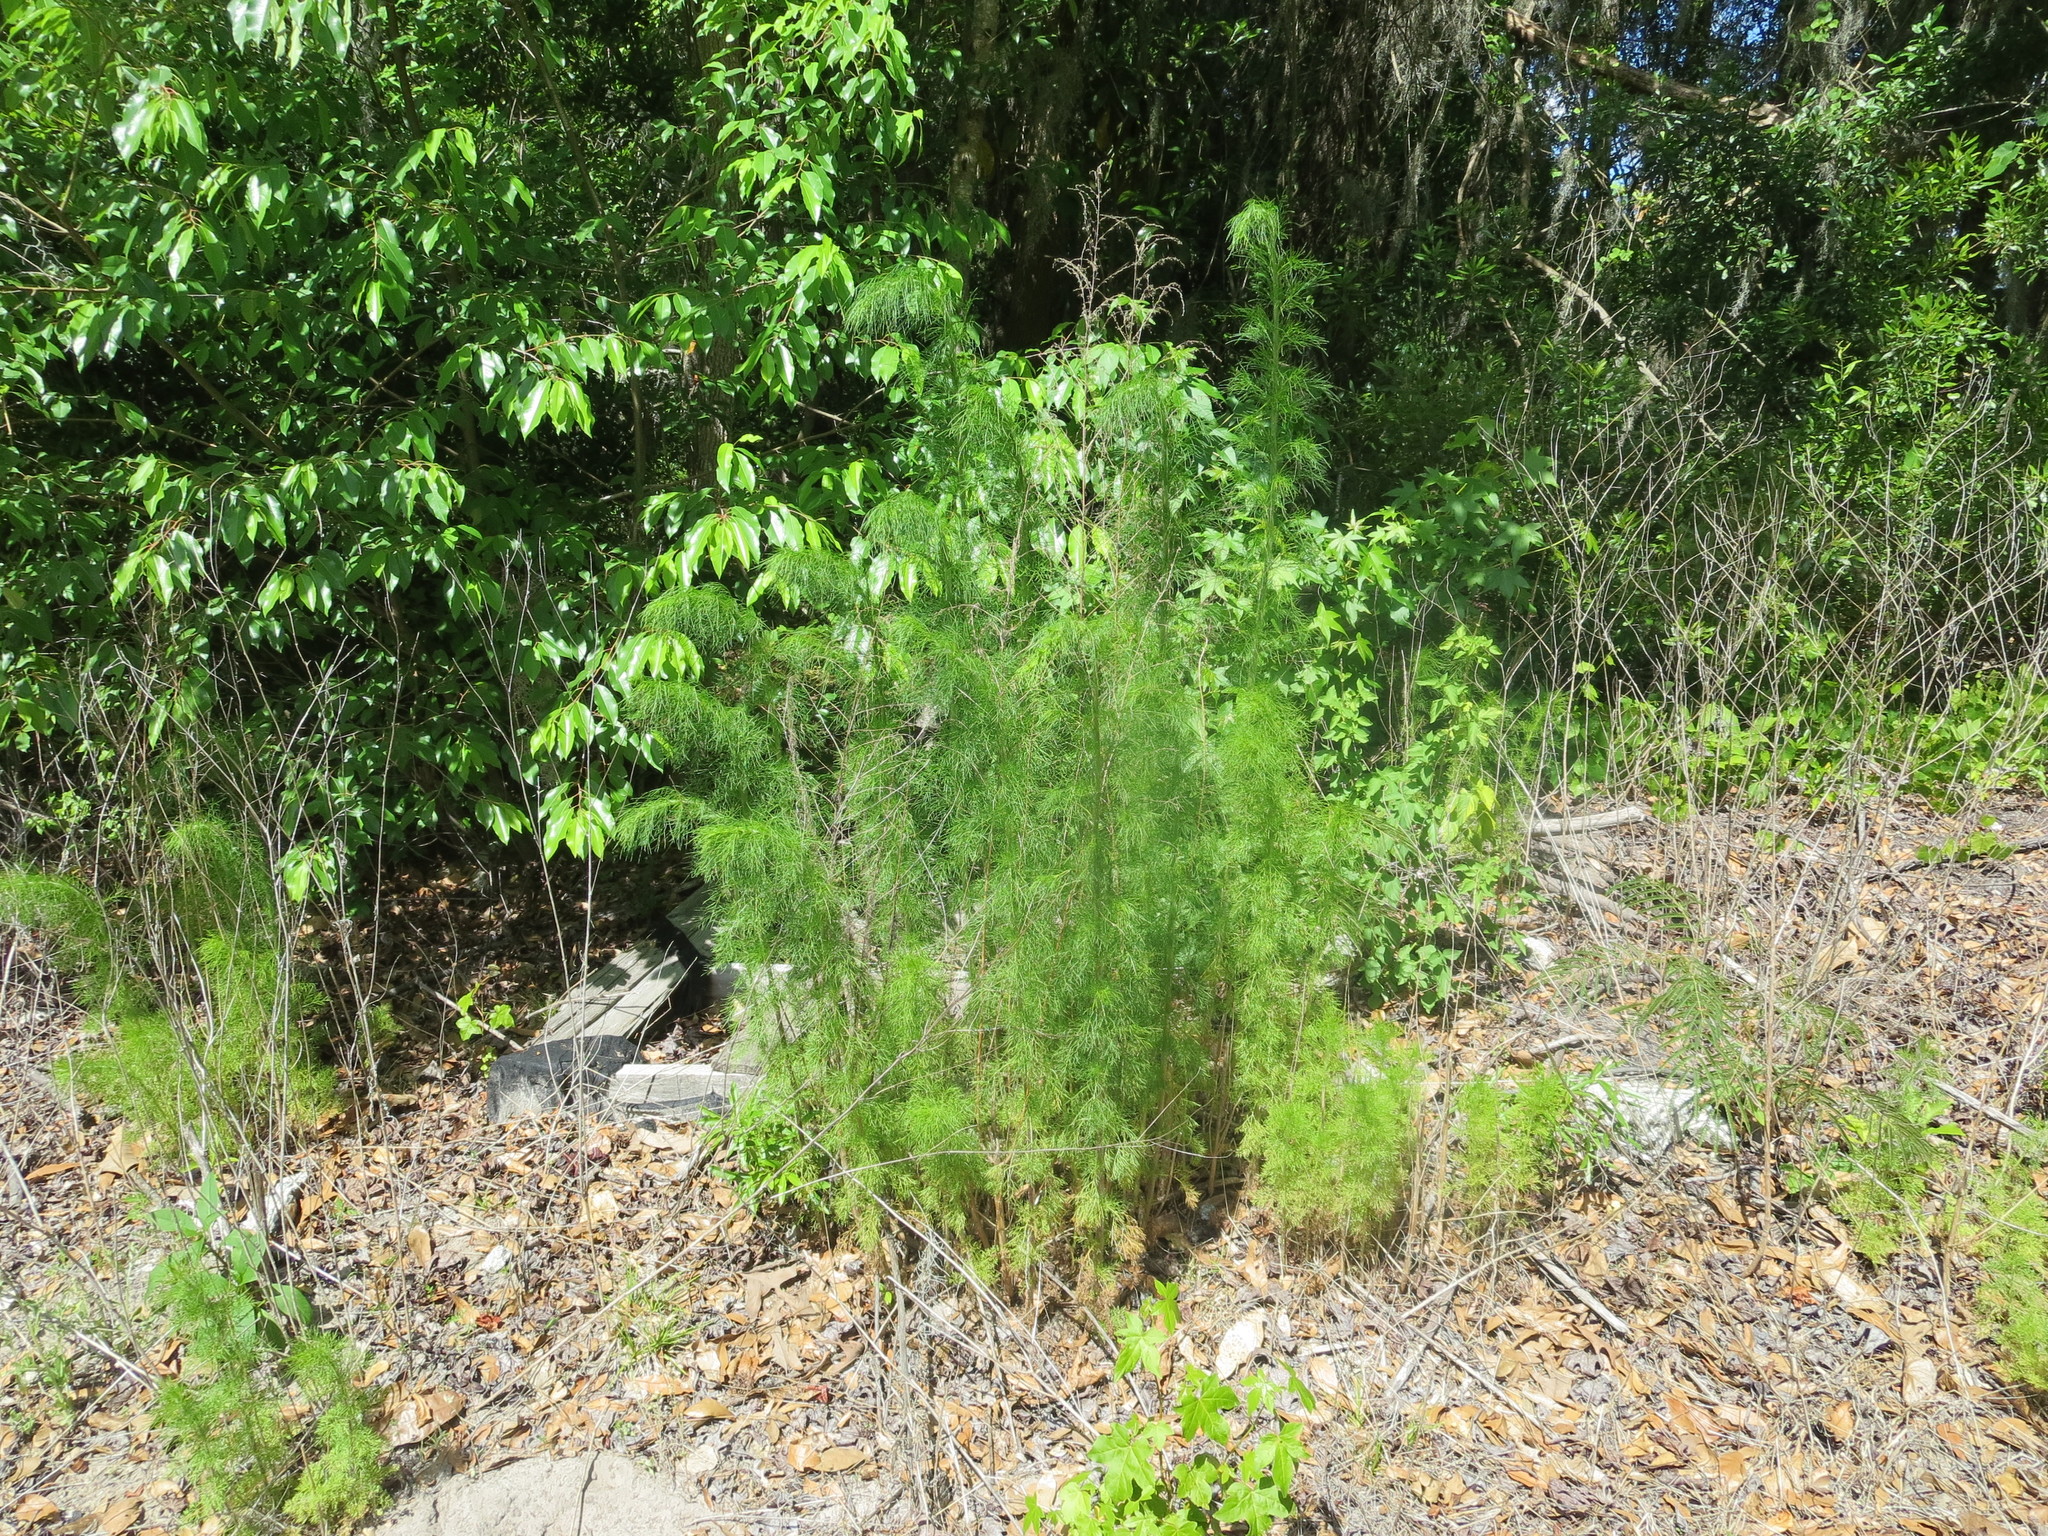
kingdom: Plantae
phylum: Tracheophyta
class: Magnoliopsida
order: Asterales
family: Asteraceae
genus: Eupatorium
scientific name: Eupatorium capillifolium
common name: Dog-fennel
